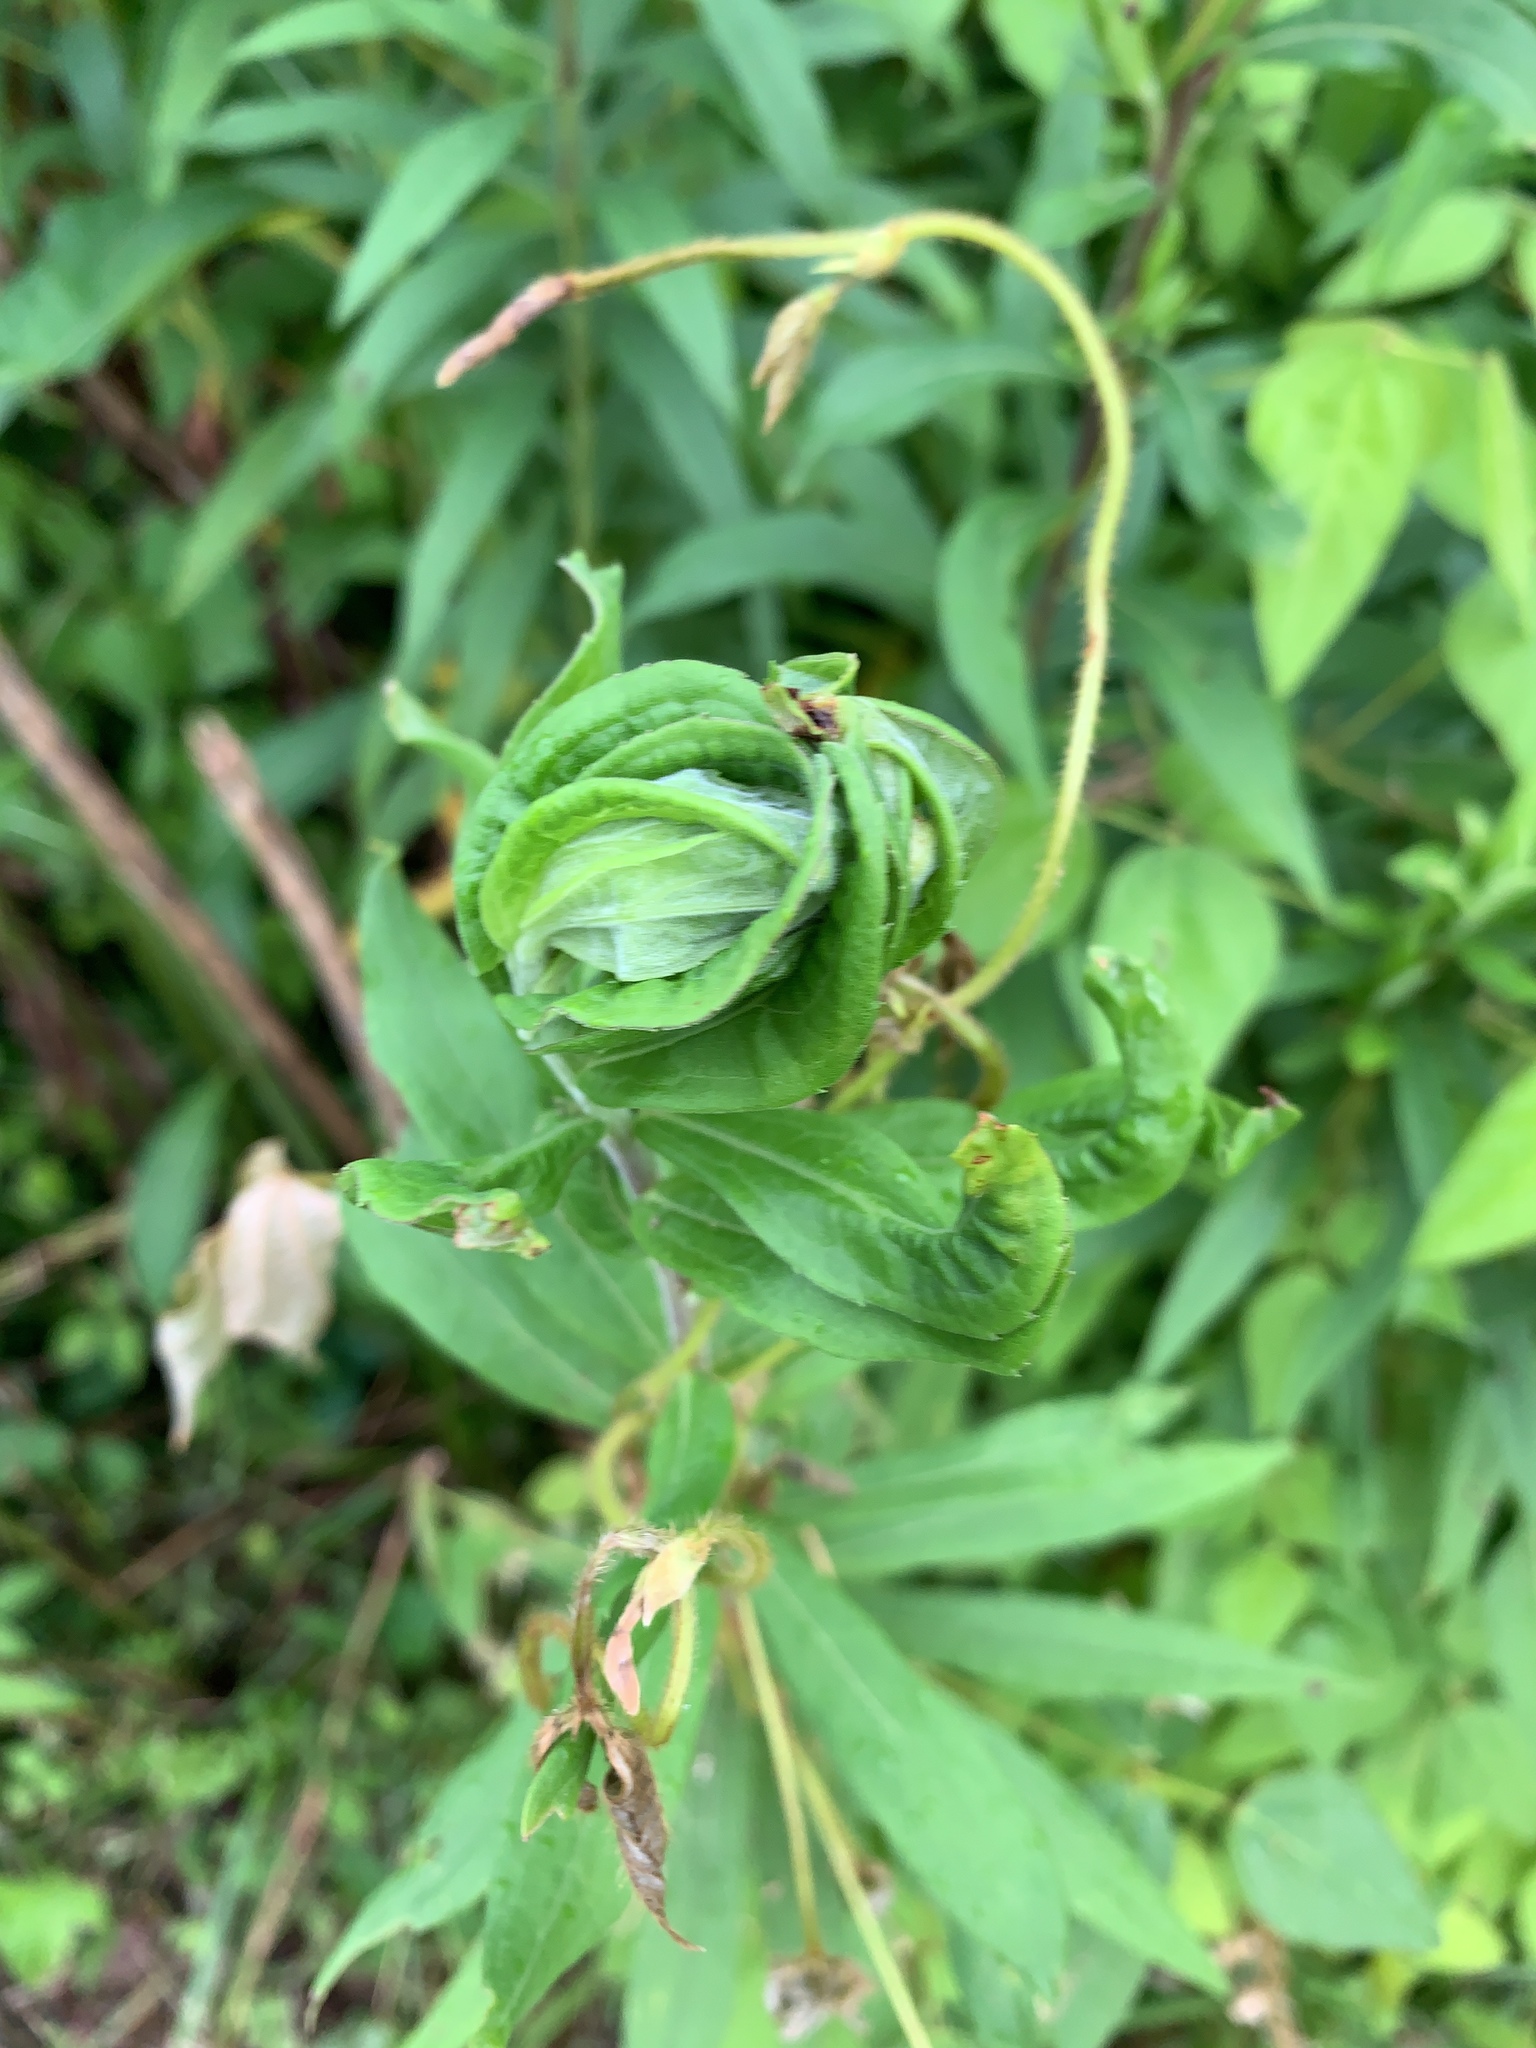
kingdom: Animalia
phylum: Arthropoda
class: Insecta
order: Diptera
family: Cecidomyiidae
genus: Asphondylia
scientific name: Asphondylia solidaginis
